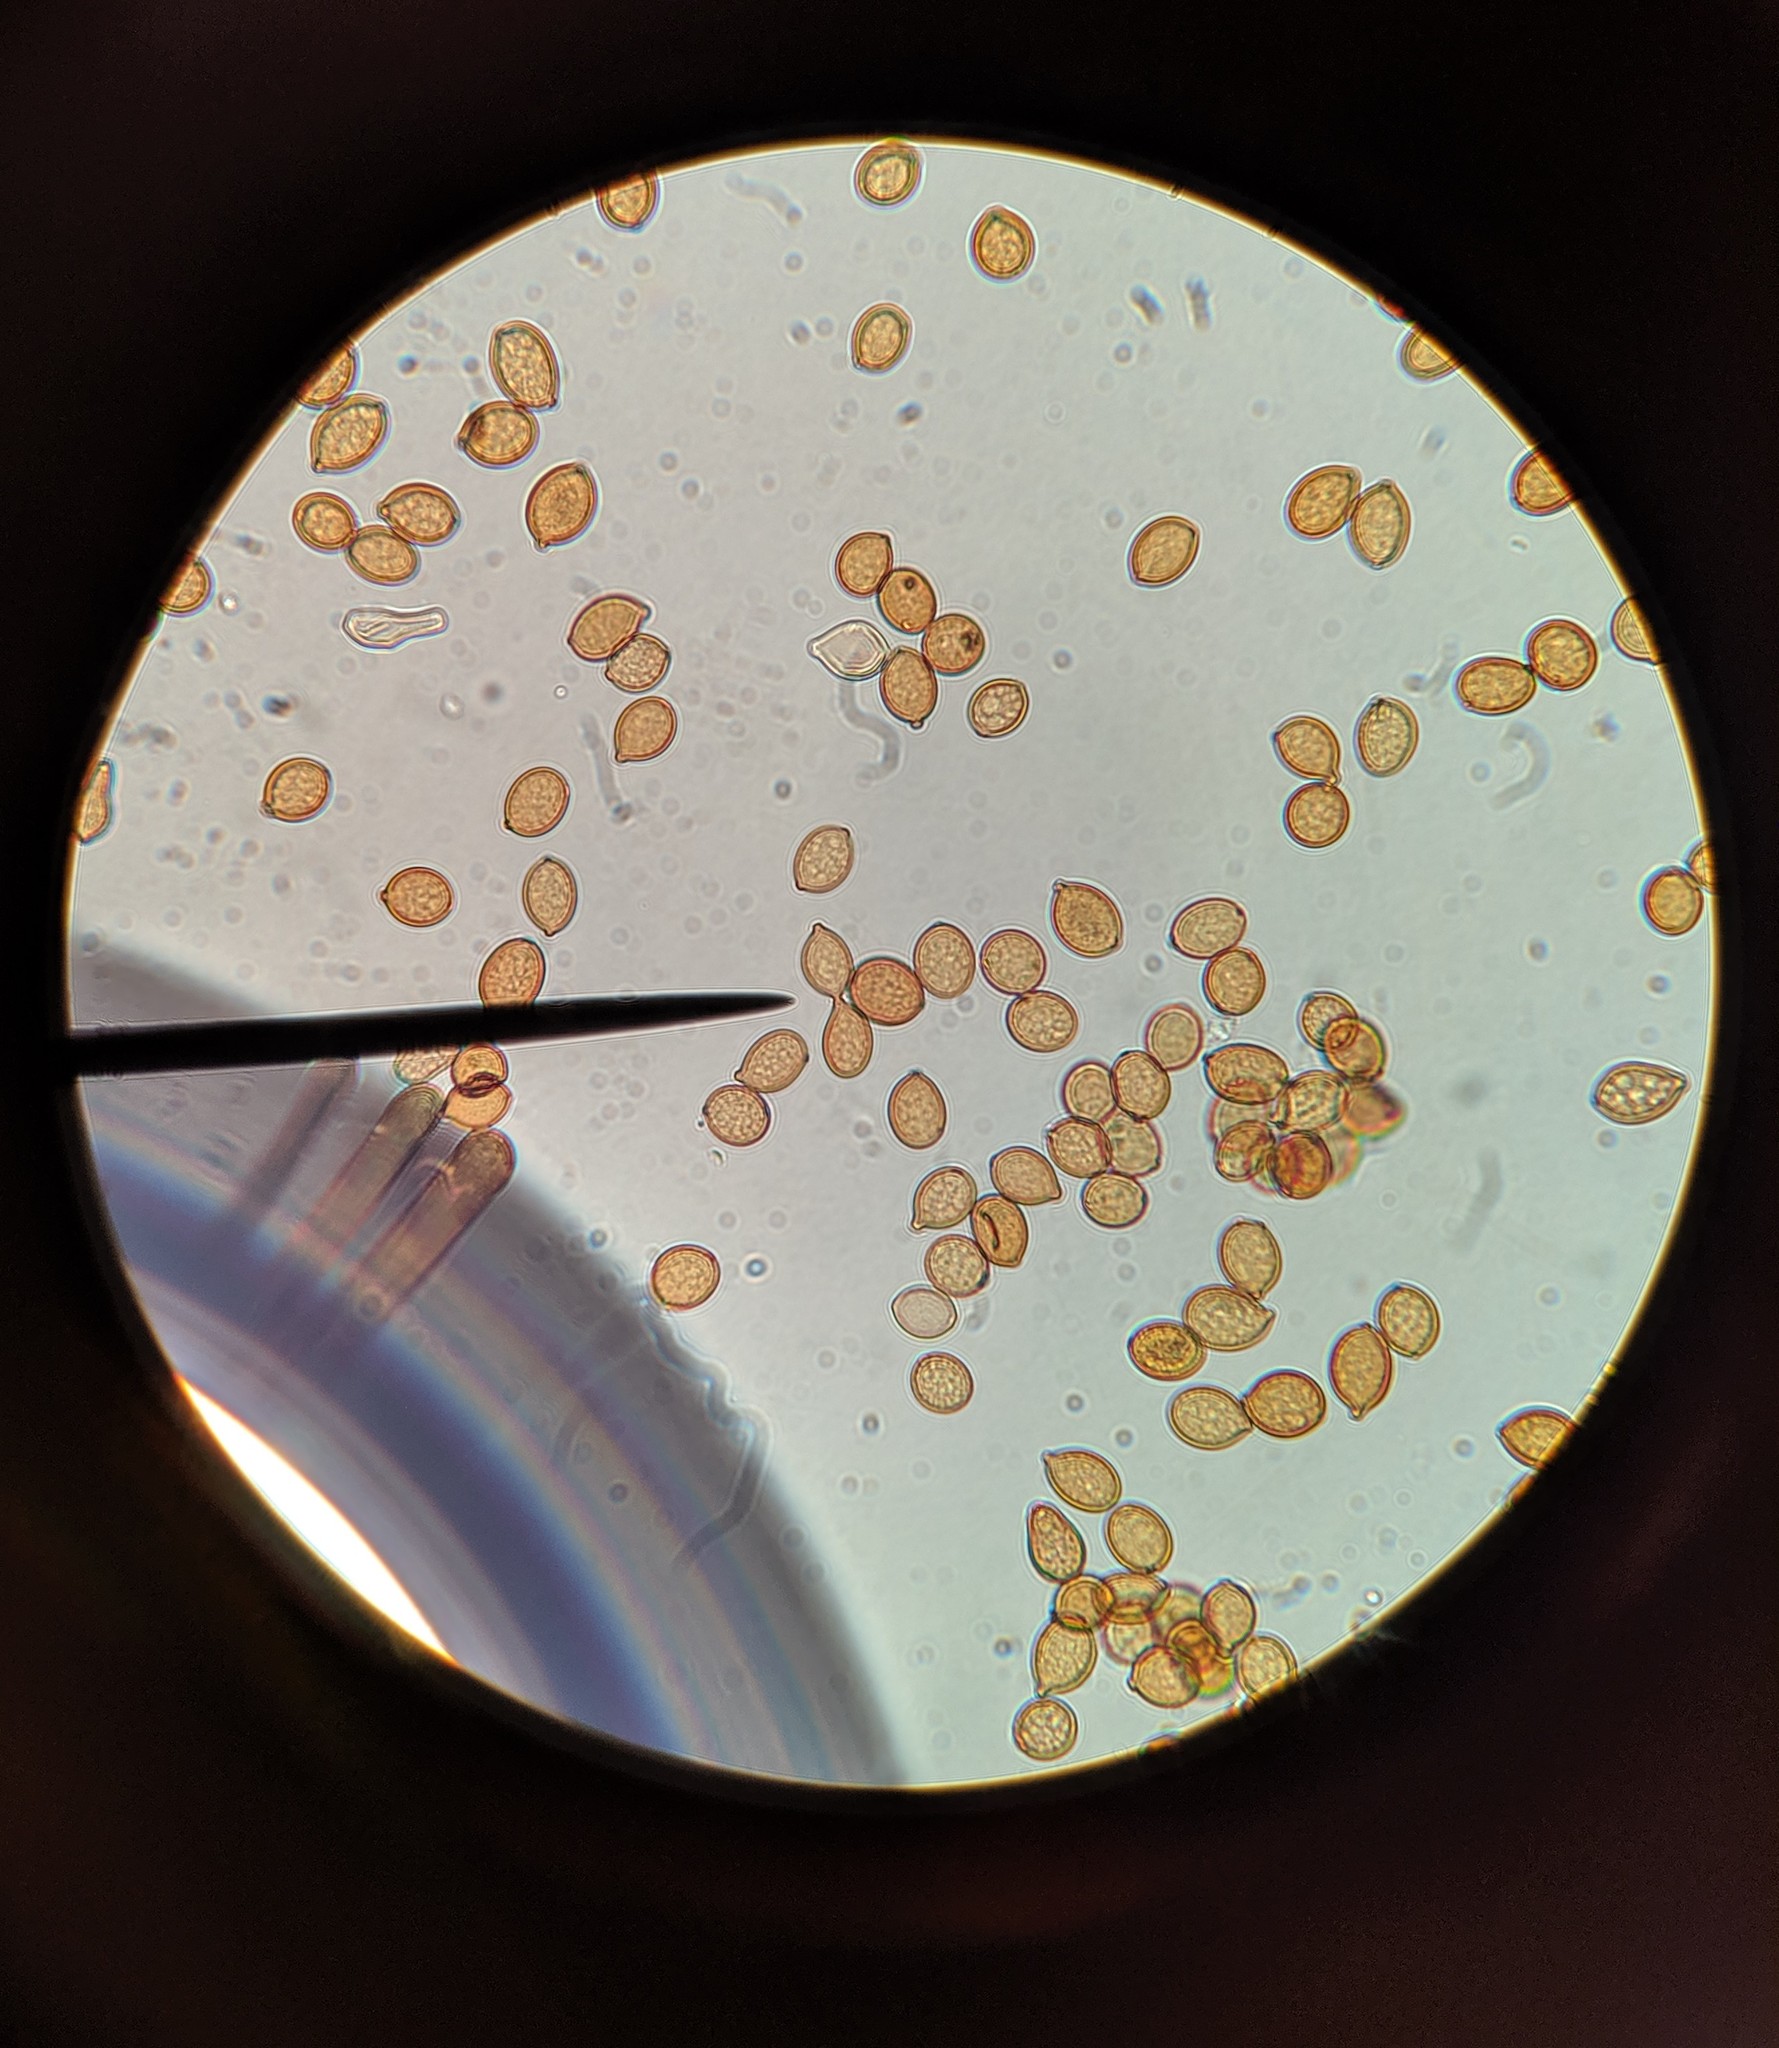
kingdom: Fungi
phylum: Basidiomycota
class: Agaricomycetes
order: Cantharellales
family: Botryobasidiaceae
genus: Botryobasidium
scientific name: Botryobasidium aureum
